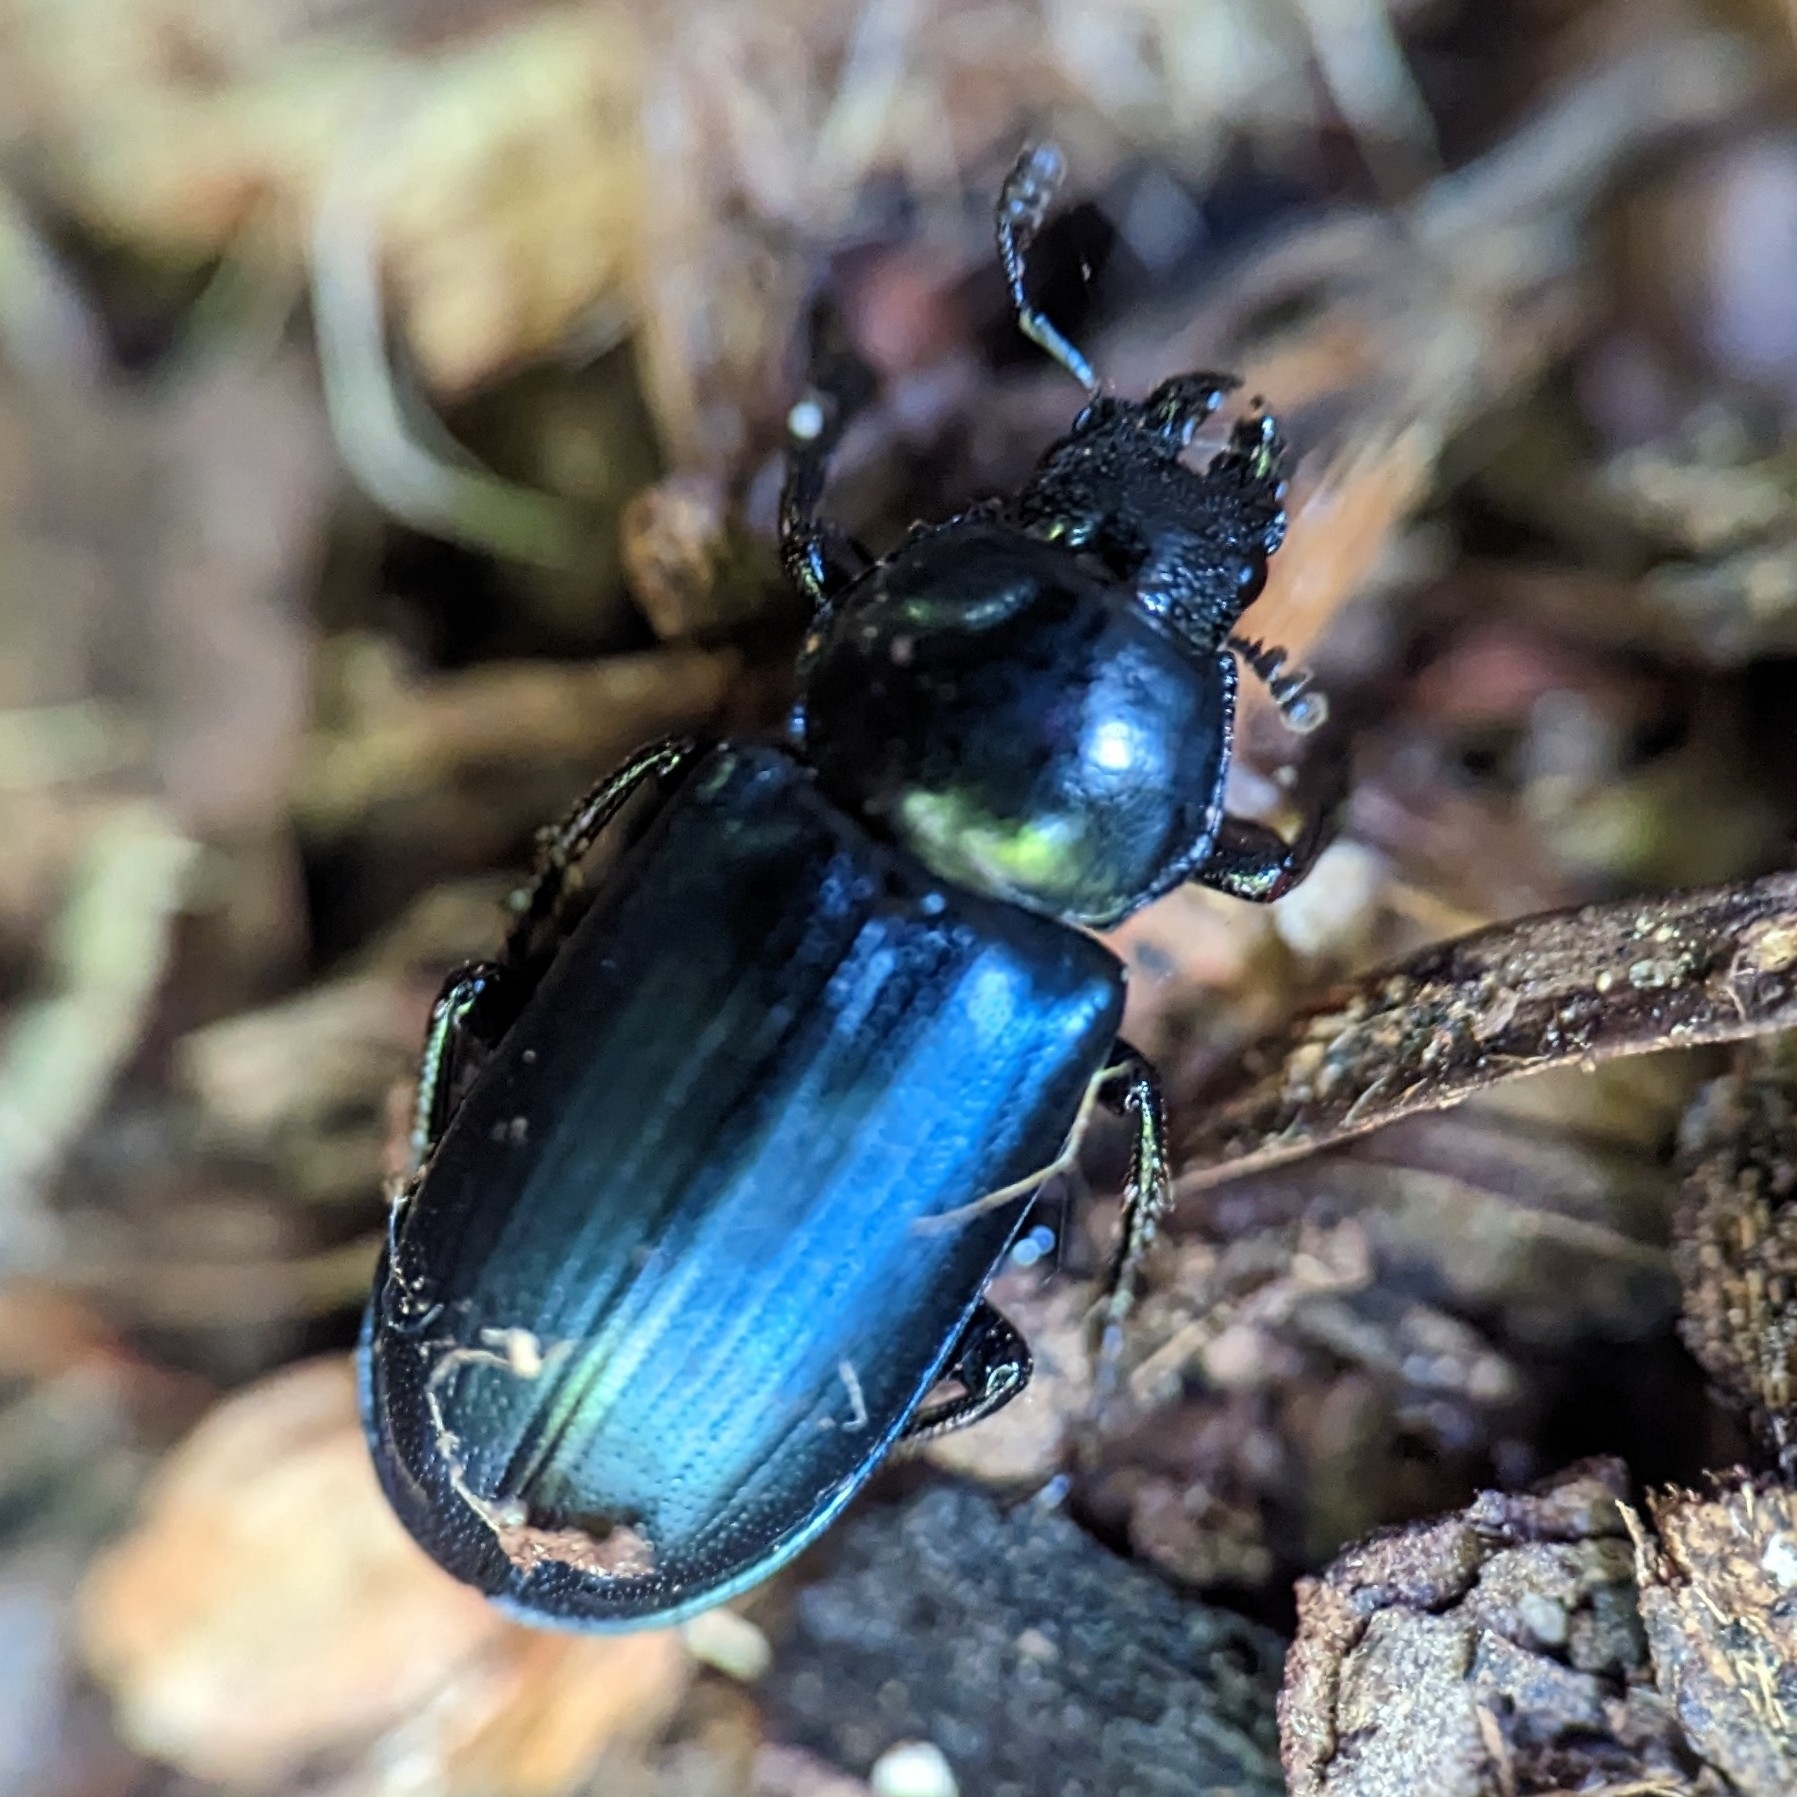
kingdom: Animalia
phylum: Arthropoda
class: Insecta
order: Coleoptera
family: Lucanidae
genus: Platycerus
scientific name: Platycerus oregonensis
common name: Oregon stag beetle
